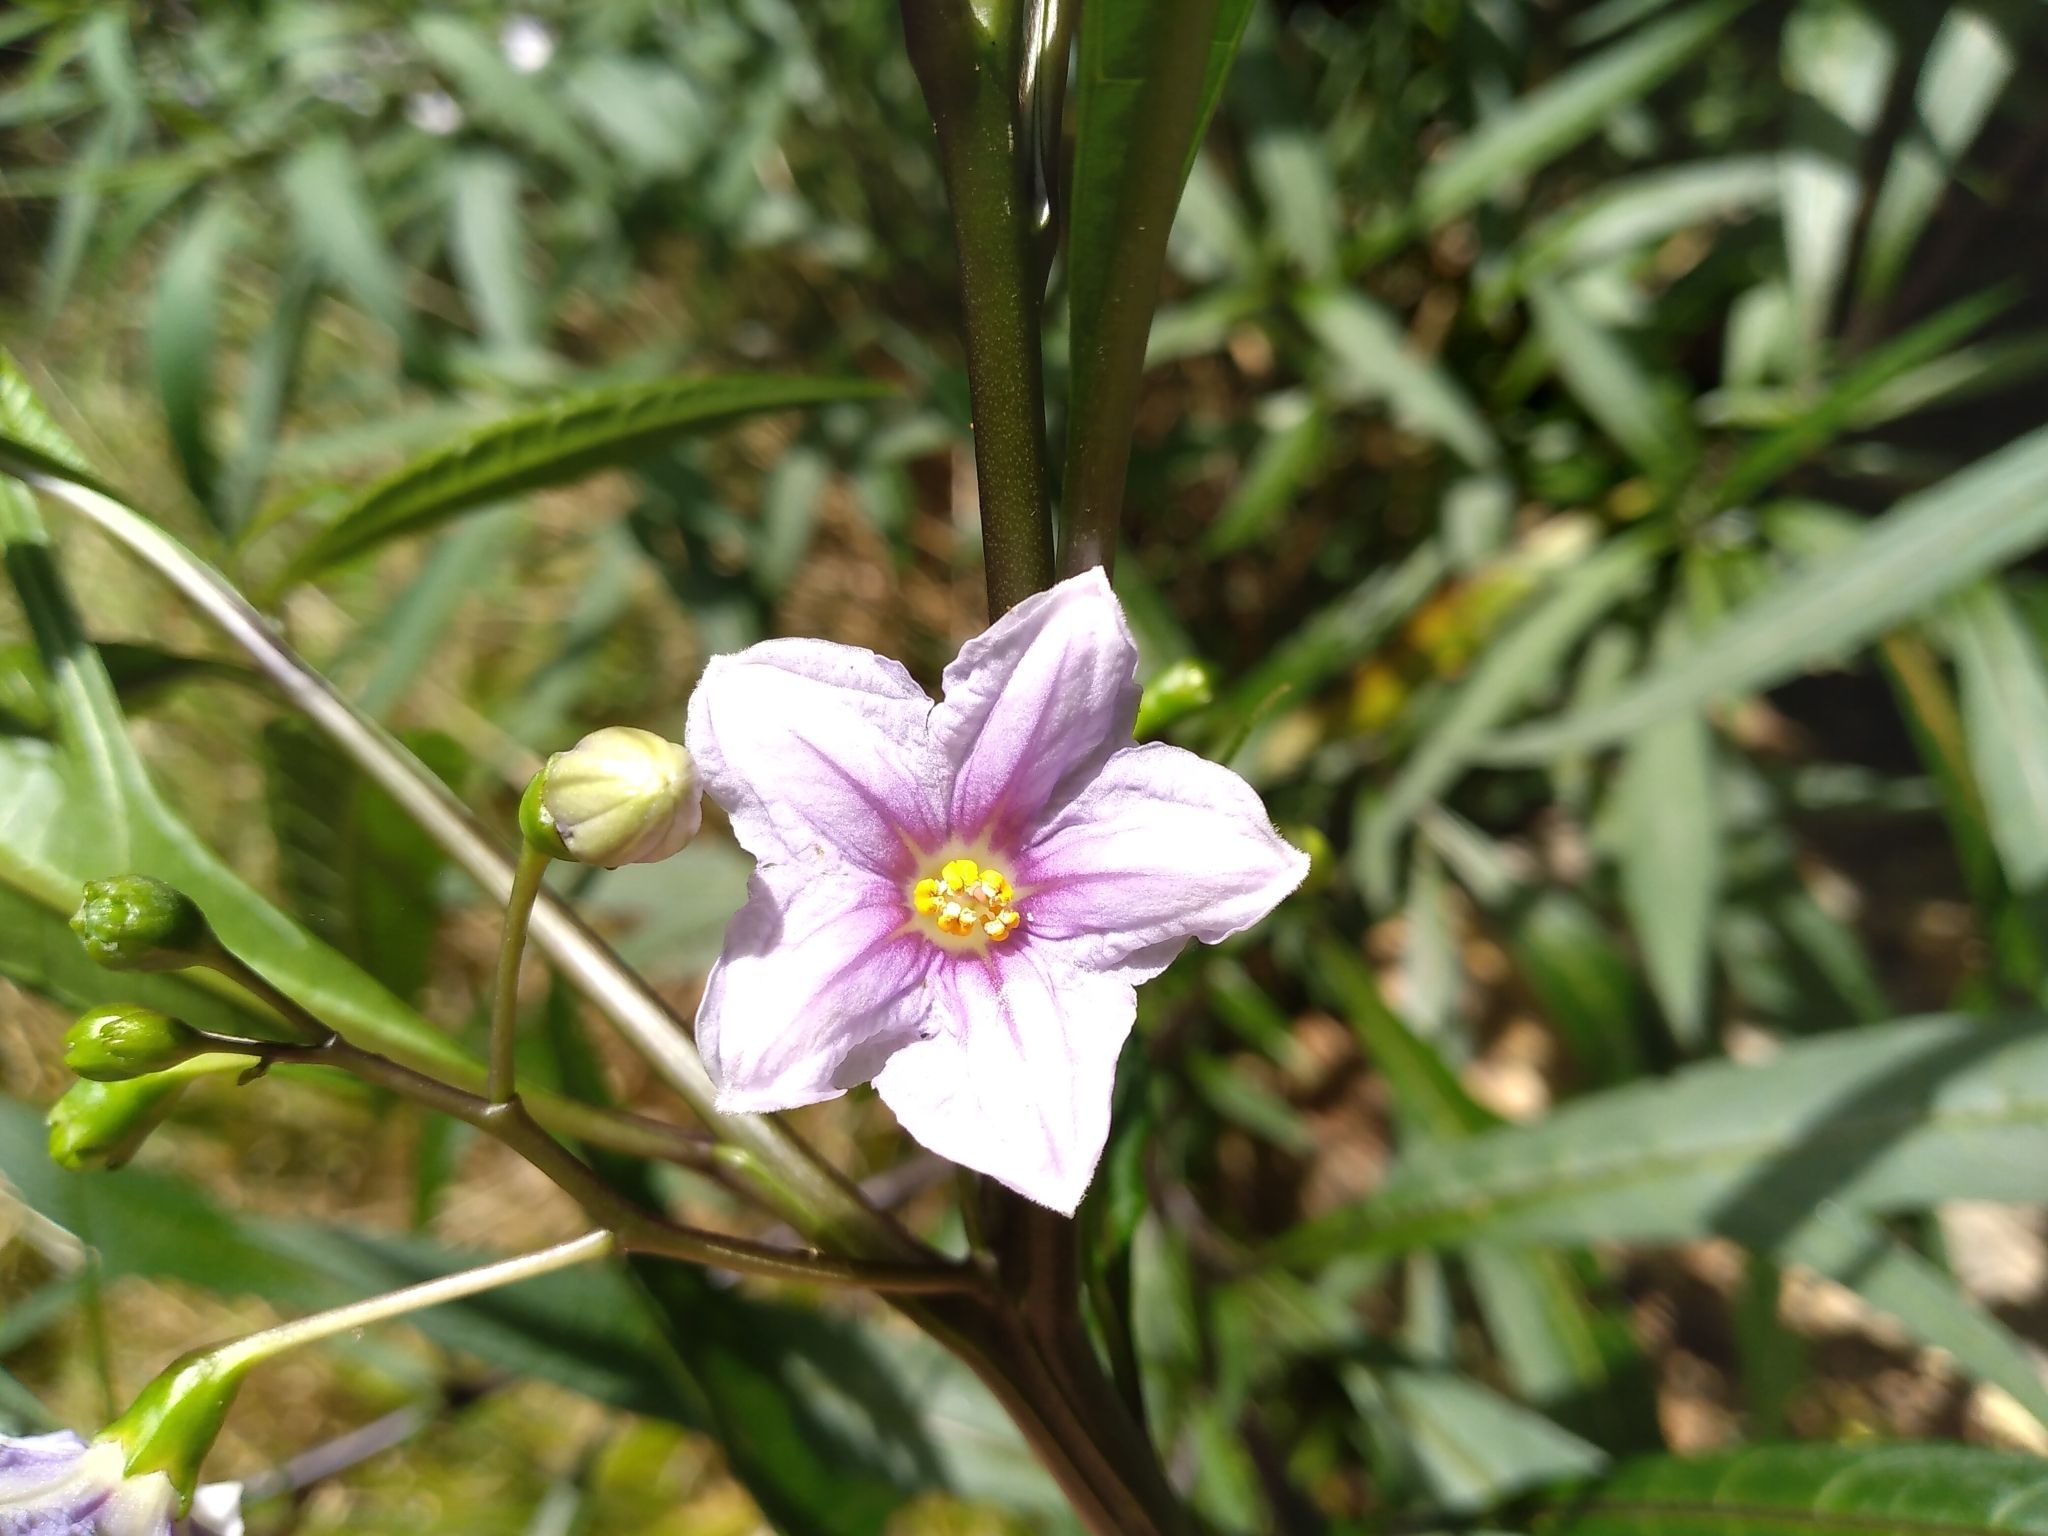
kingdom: Plantae
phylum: Tracheophyta
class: Magnoliopsida
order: Solanales
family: Solanaceae
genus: Solanum
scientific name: Solanum aviculare
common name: New zealand nightshade
